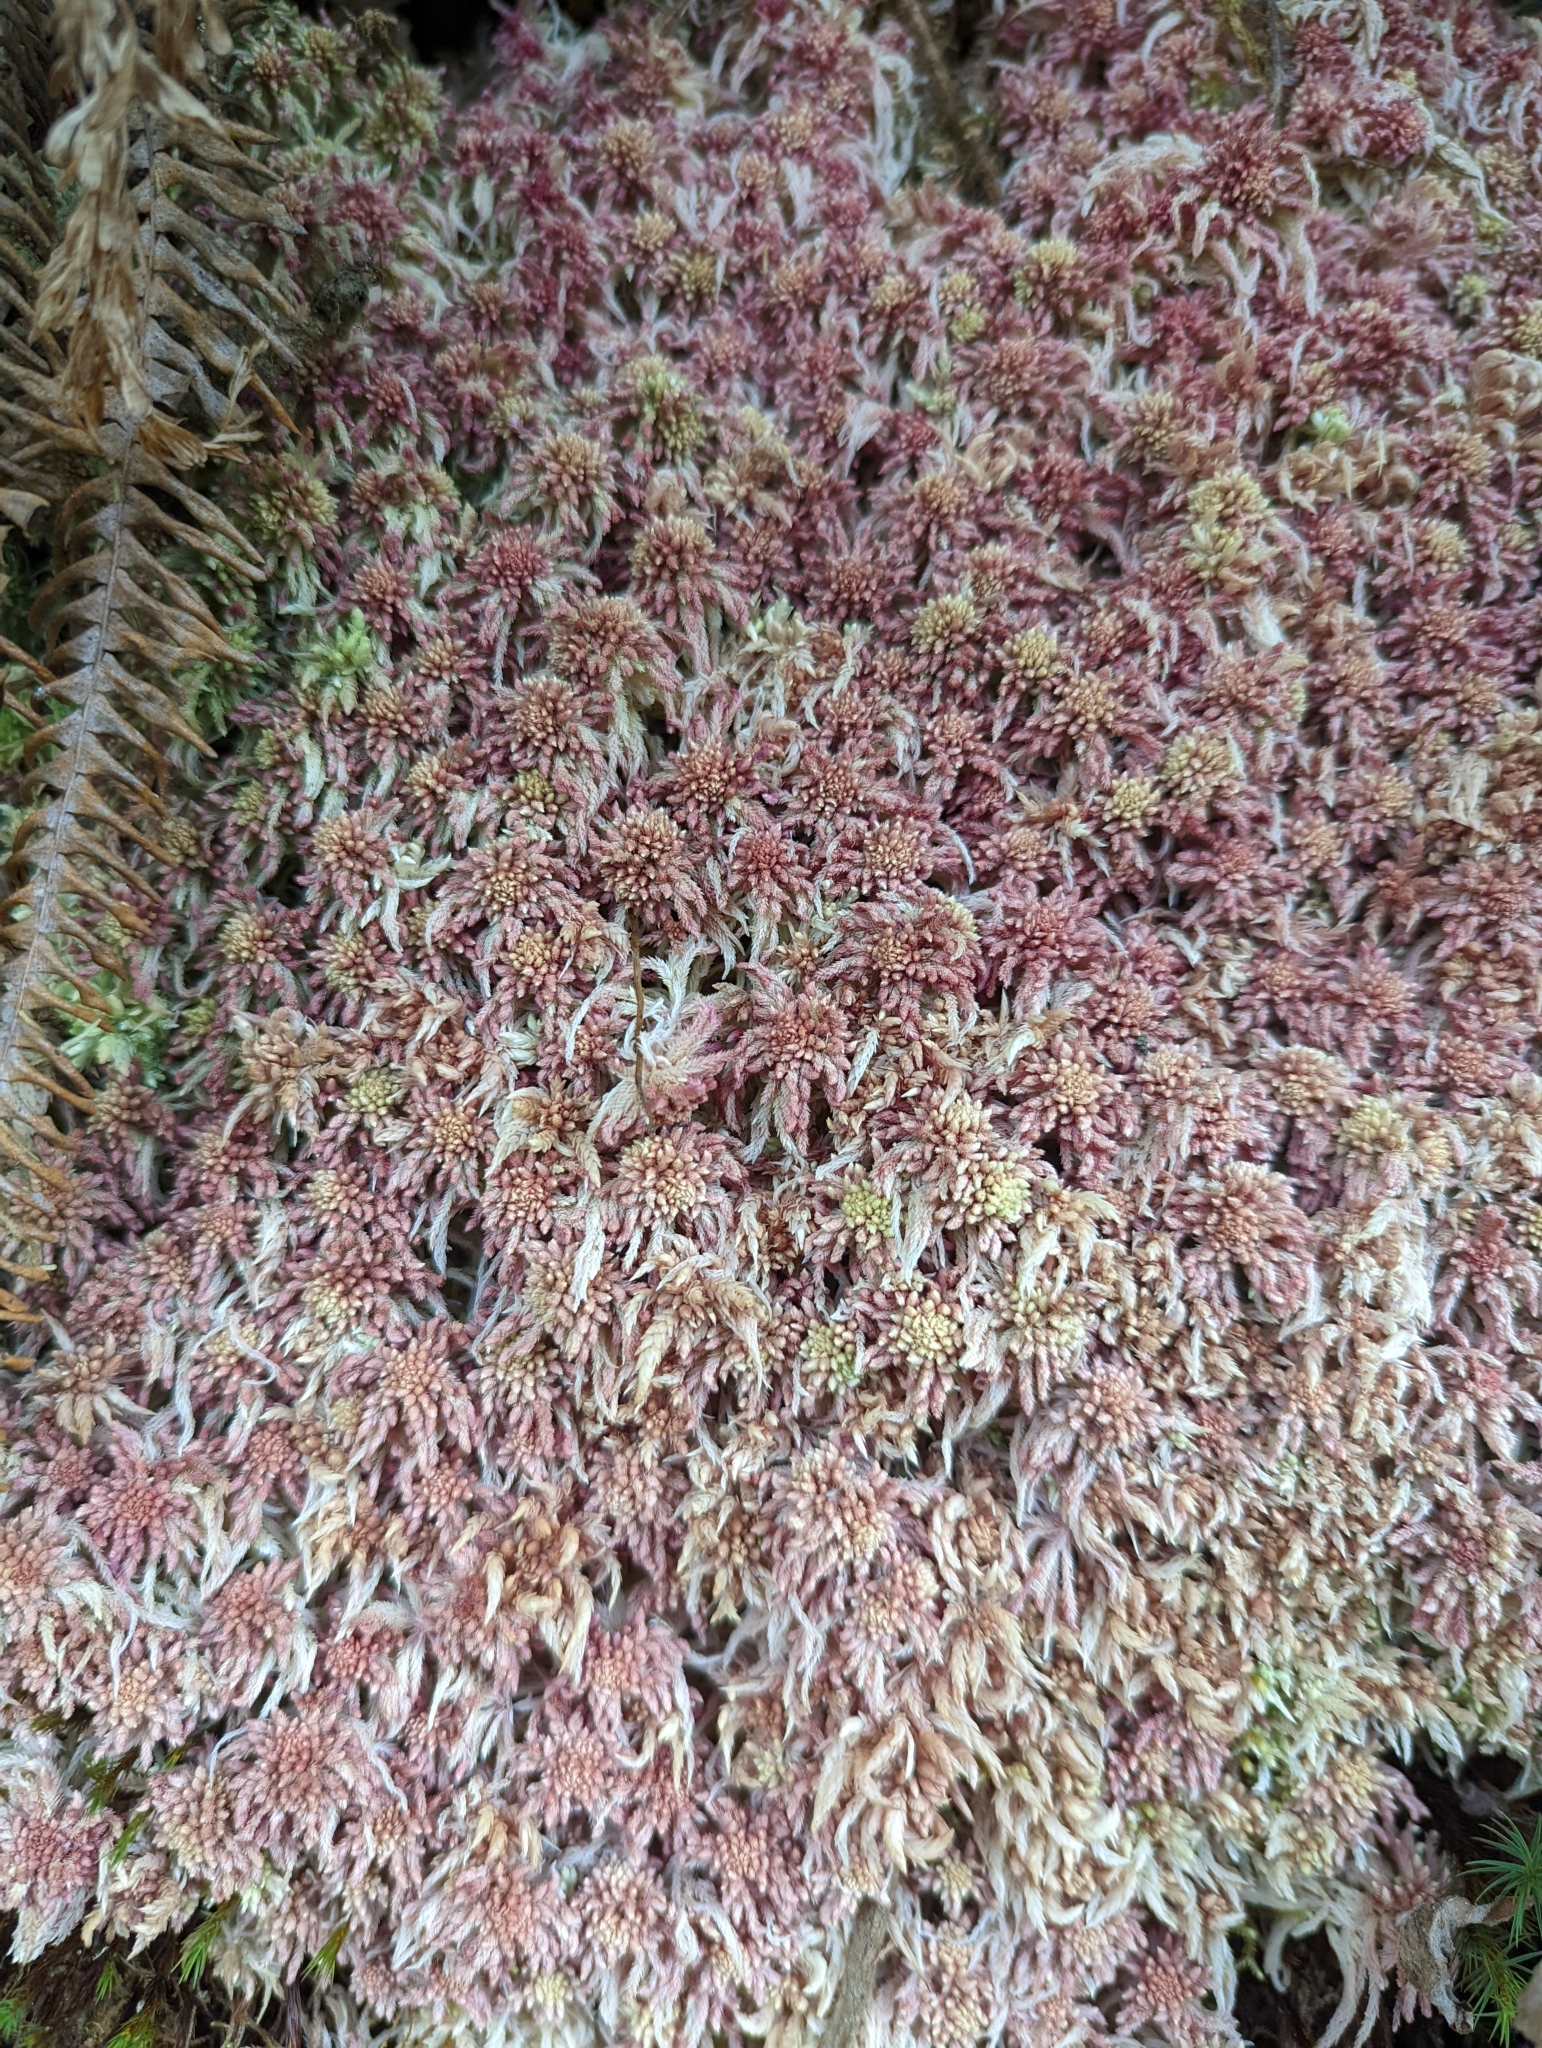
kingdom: Plantae
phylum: Bryophyta
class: Sphagnopsida
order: Sphagnales
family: Sphagnaceae
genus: Sphagnum
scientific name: Sphagnum magellanicum
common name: Magellan's peat moss
